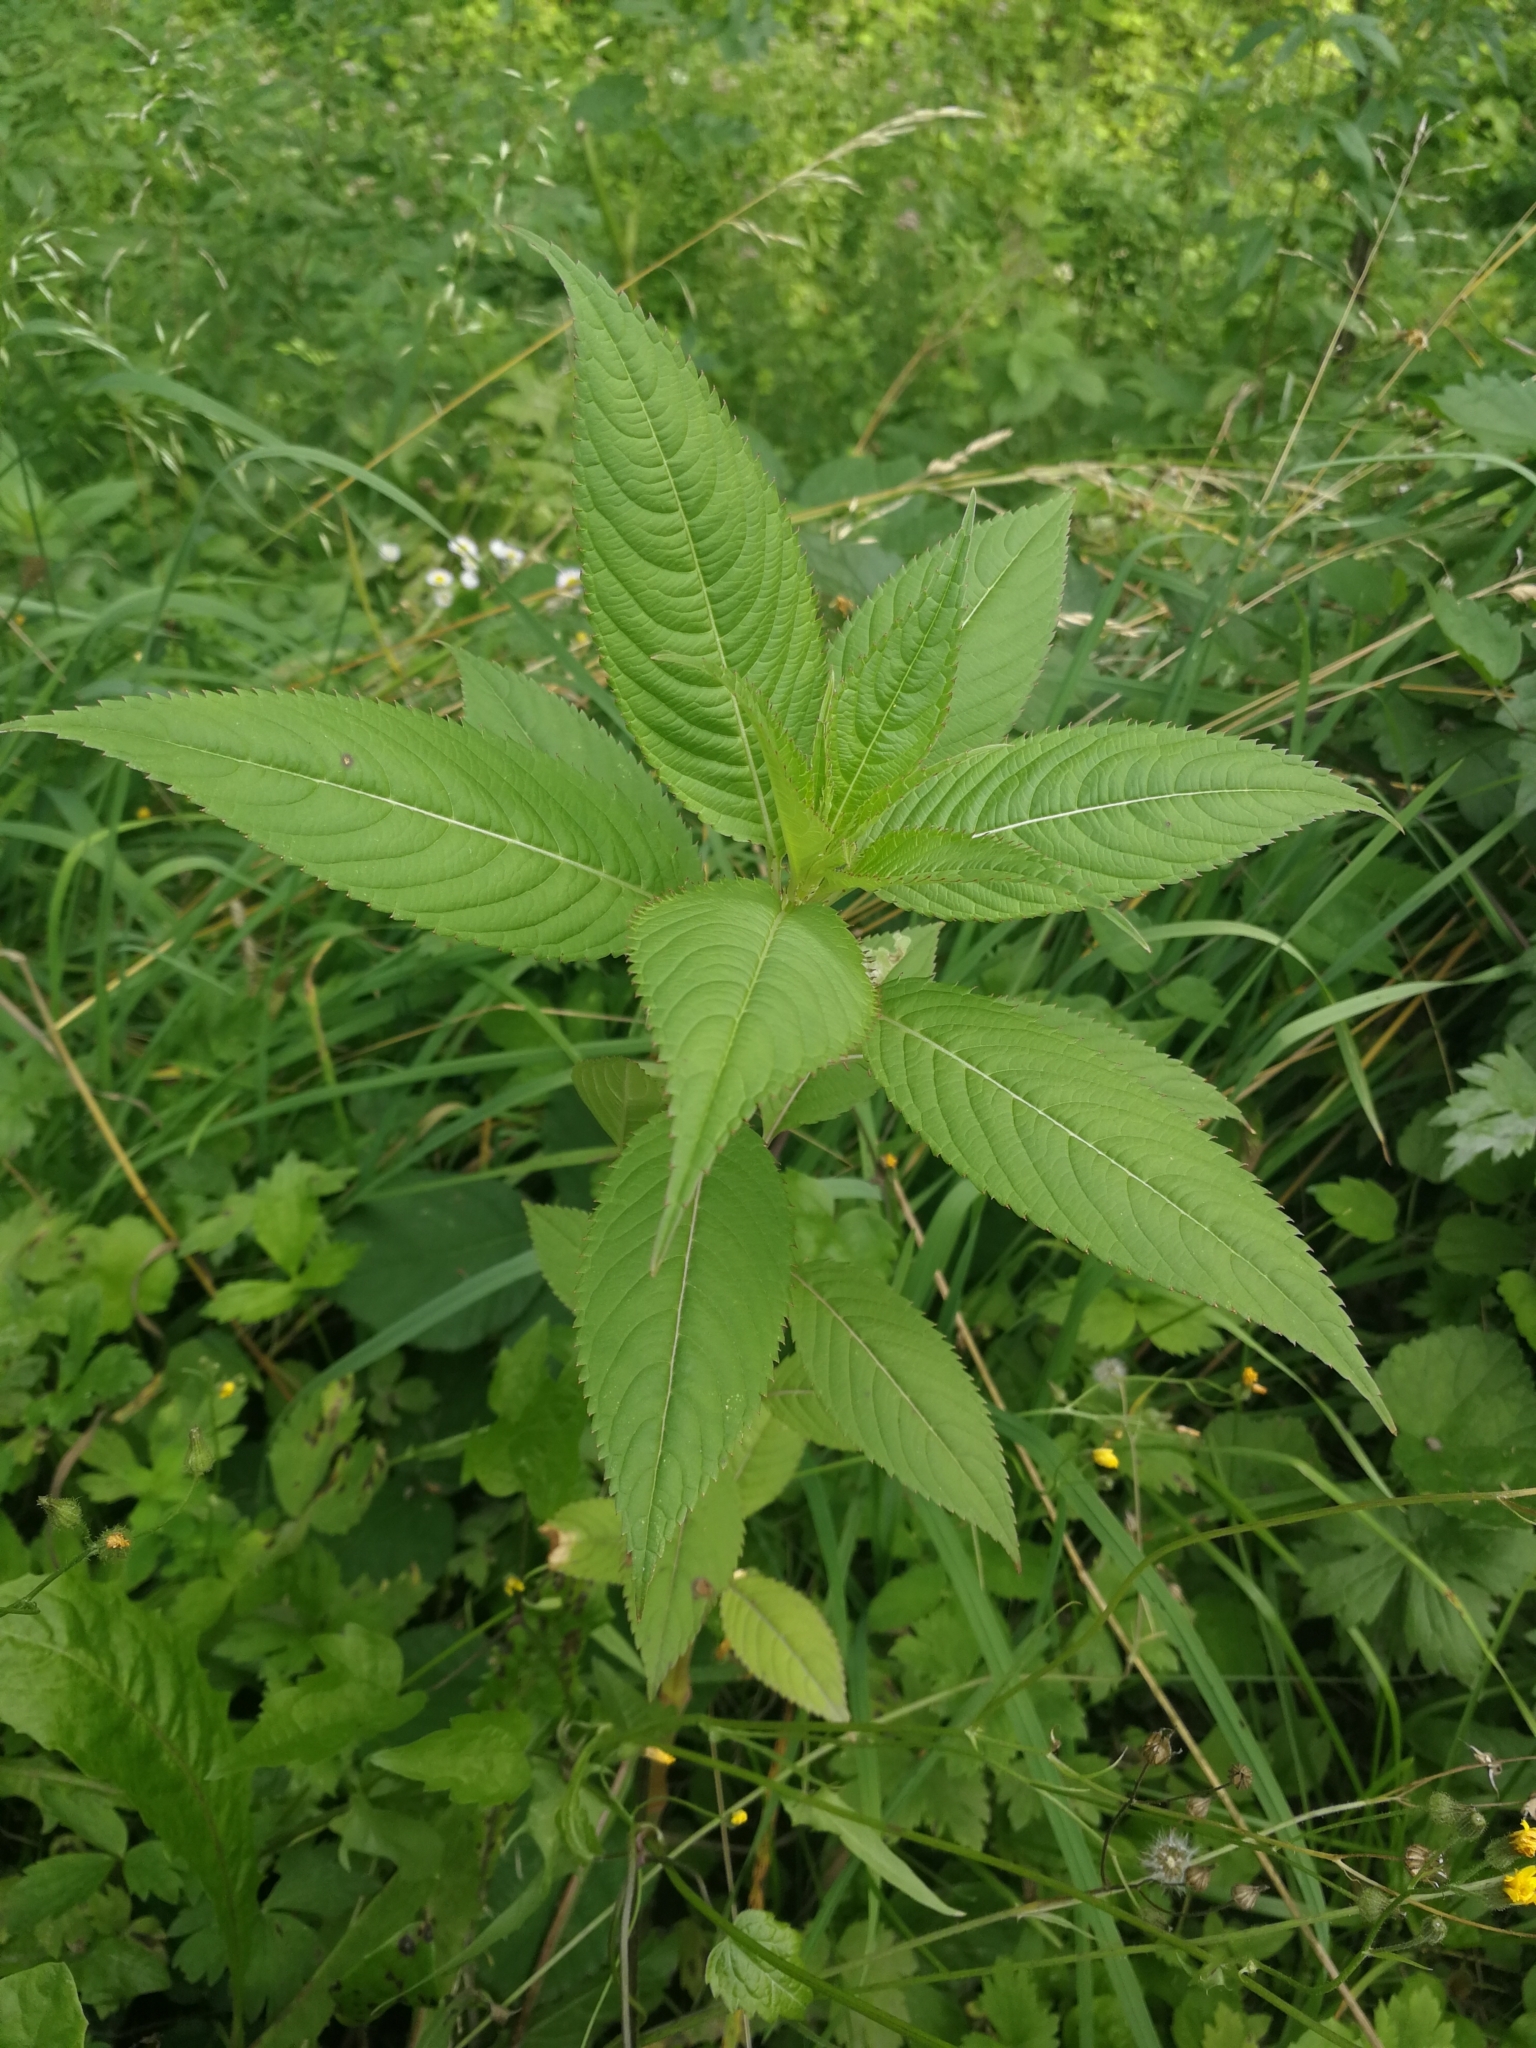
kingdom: Plantae
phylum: Tracheophyta
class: Magnoliopsida
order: Ericales
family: Balsaminaceae
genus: Impatiens
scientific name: Impatiens glandulifera
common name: Himalayan balsam
